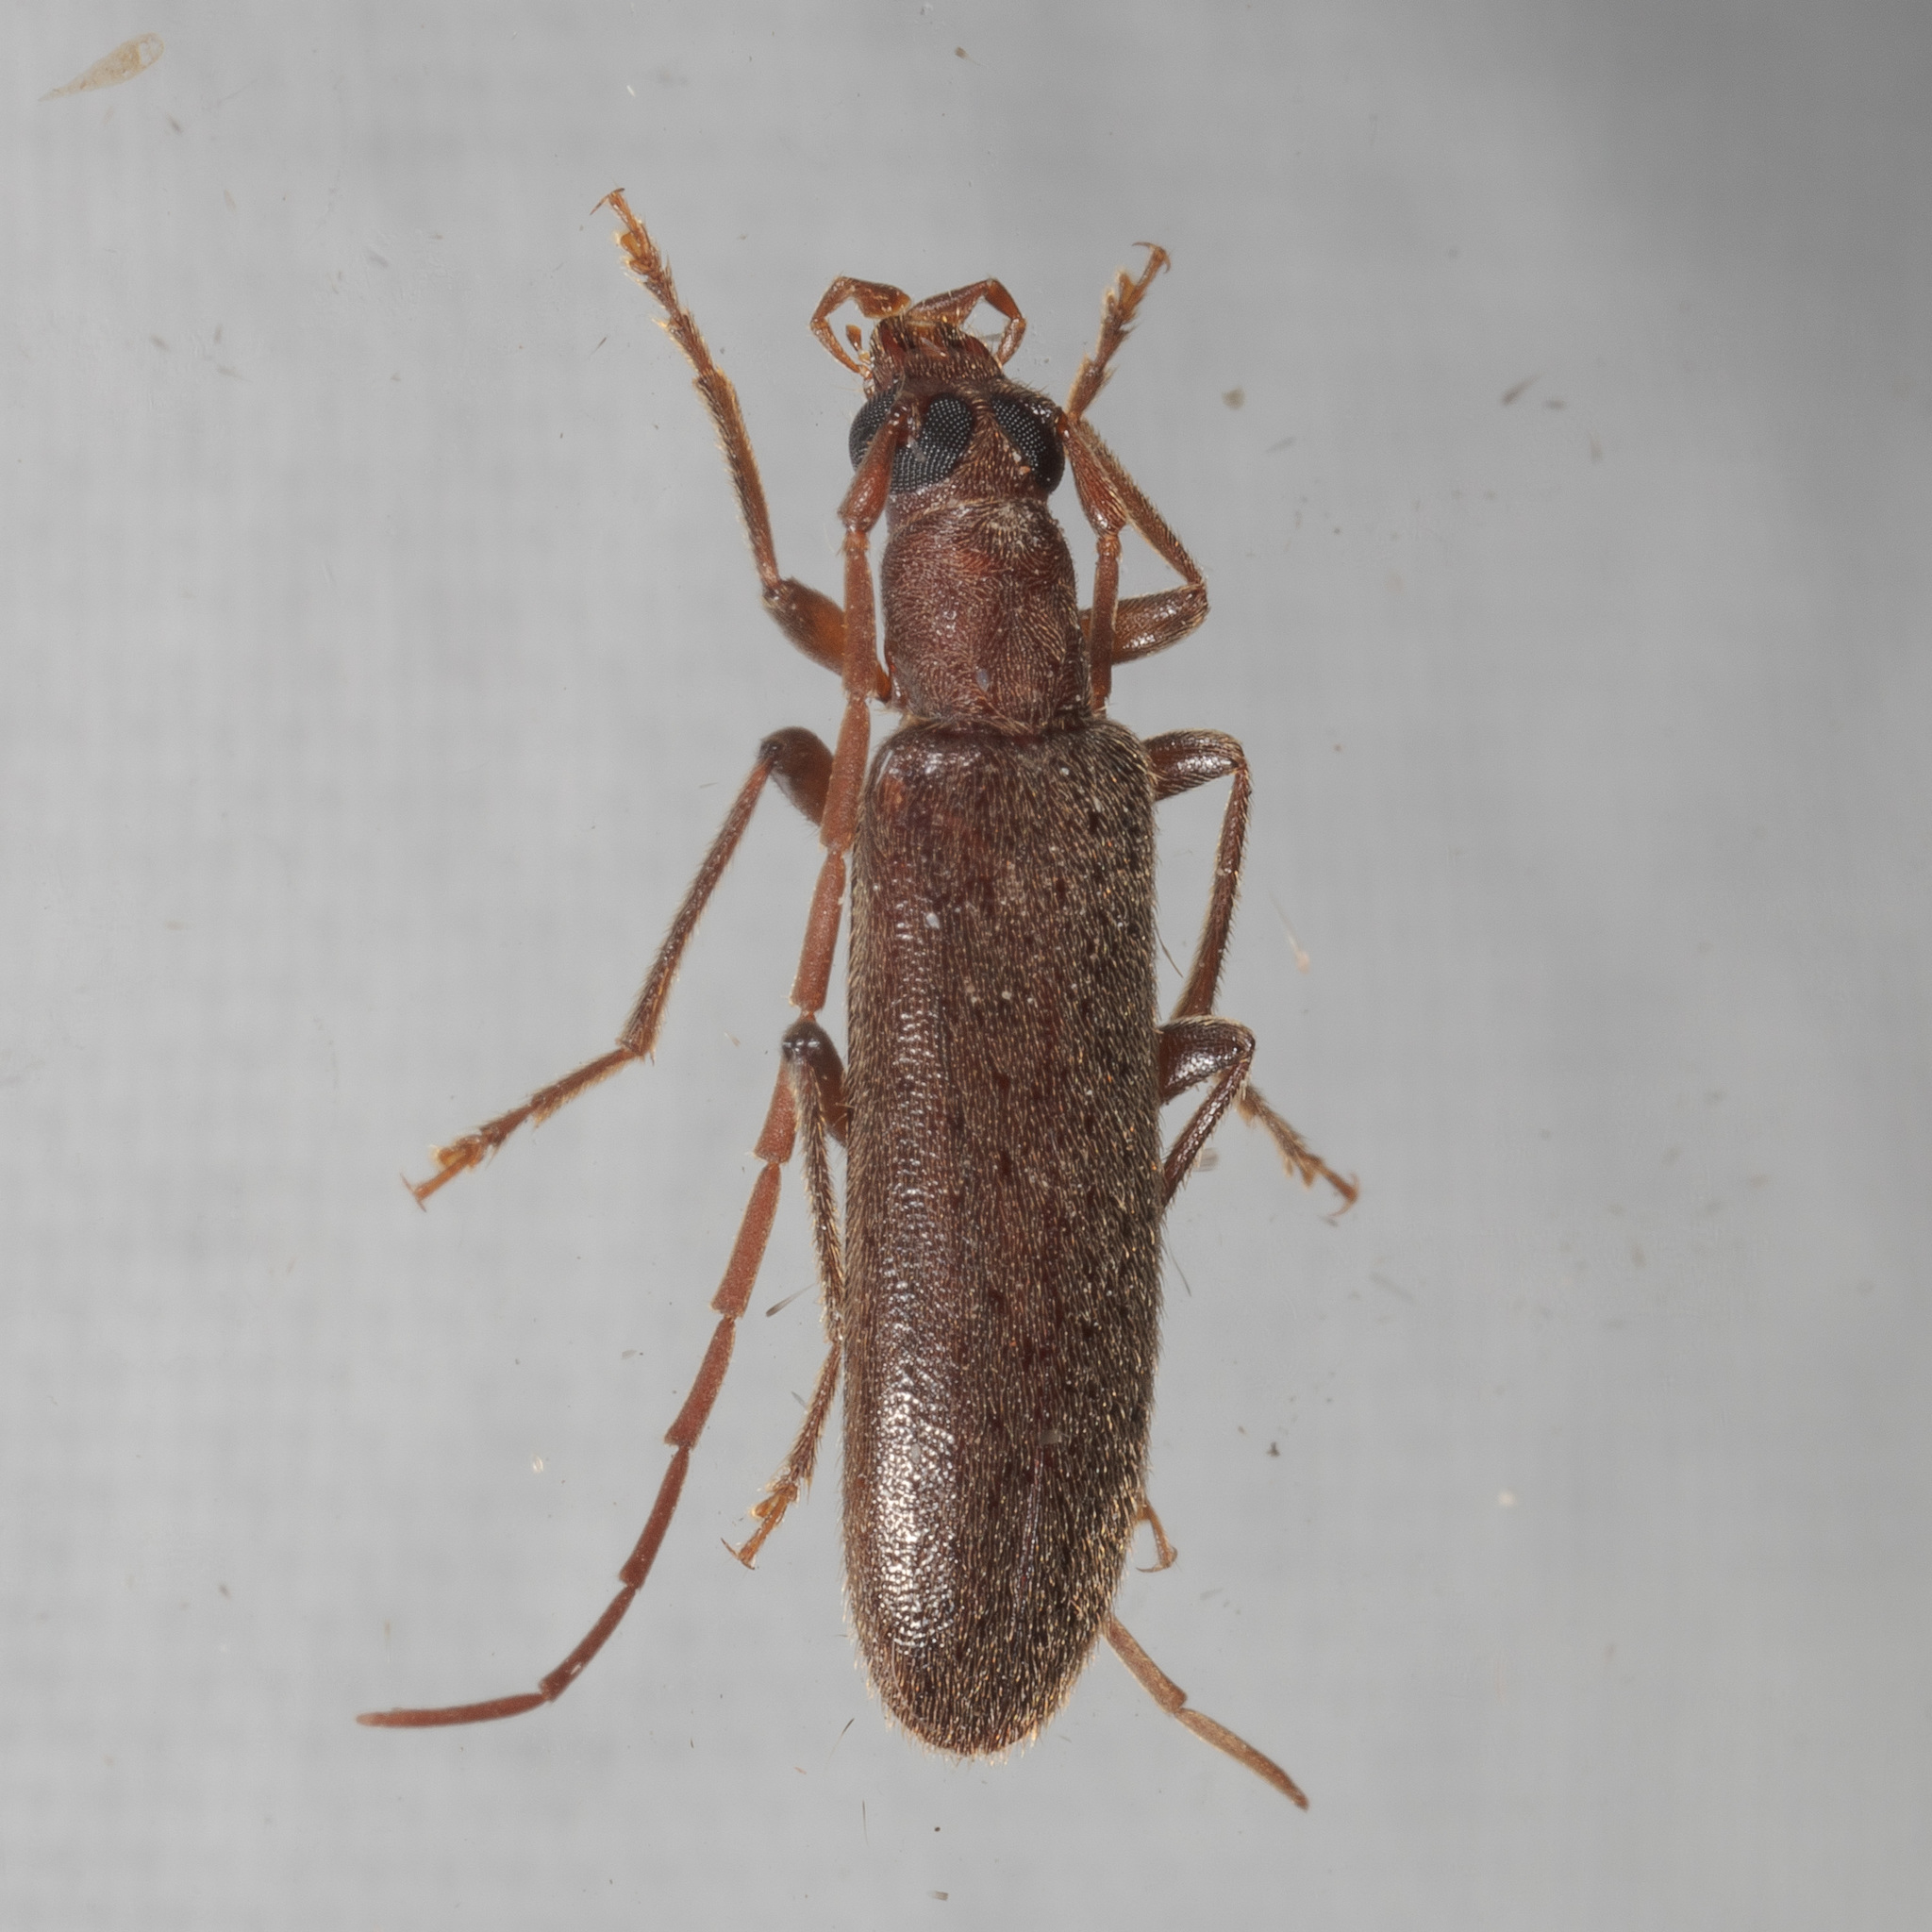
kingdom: Animalia
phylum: Arthropoda
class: Insecta
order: Coleoptera
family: Oedemeridae
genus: Sparedrus
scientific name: Sparedrus aspersus
